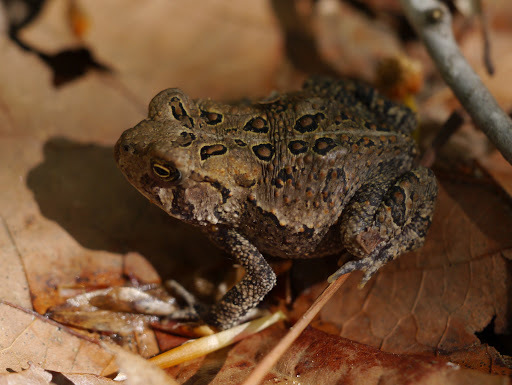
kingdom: Animalia
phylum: Chordata
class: Amphibia
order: Anura
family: Bufonidae
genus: Anaxyrus
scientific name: Anaxyrus americanus
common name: American toad
